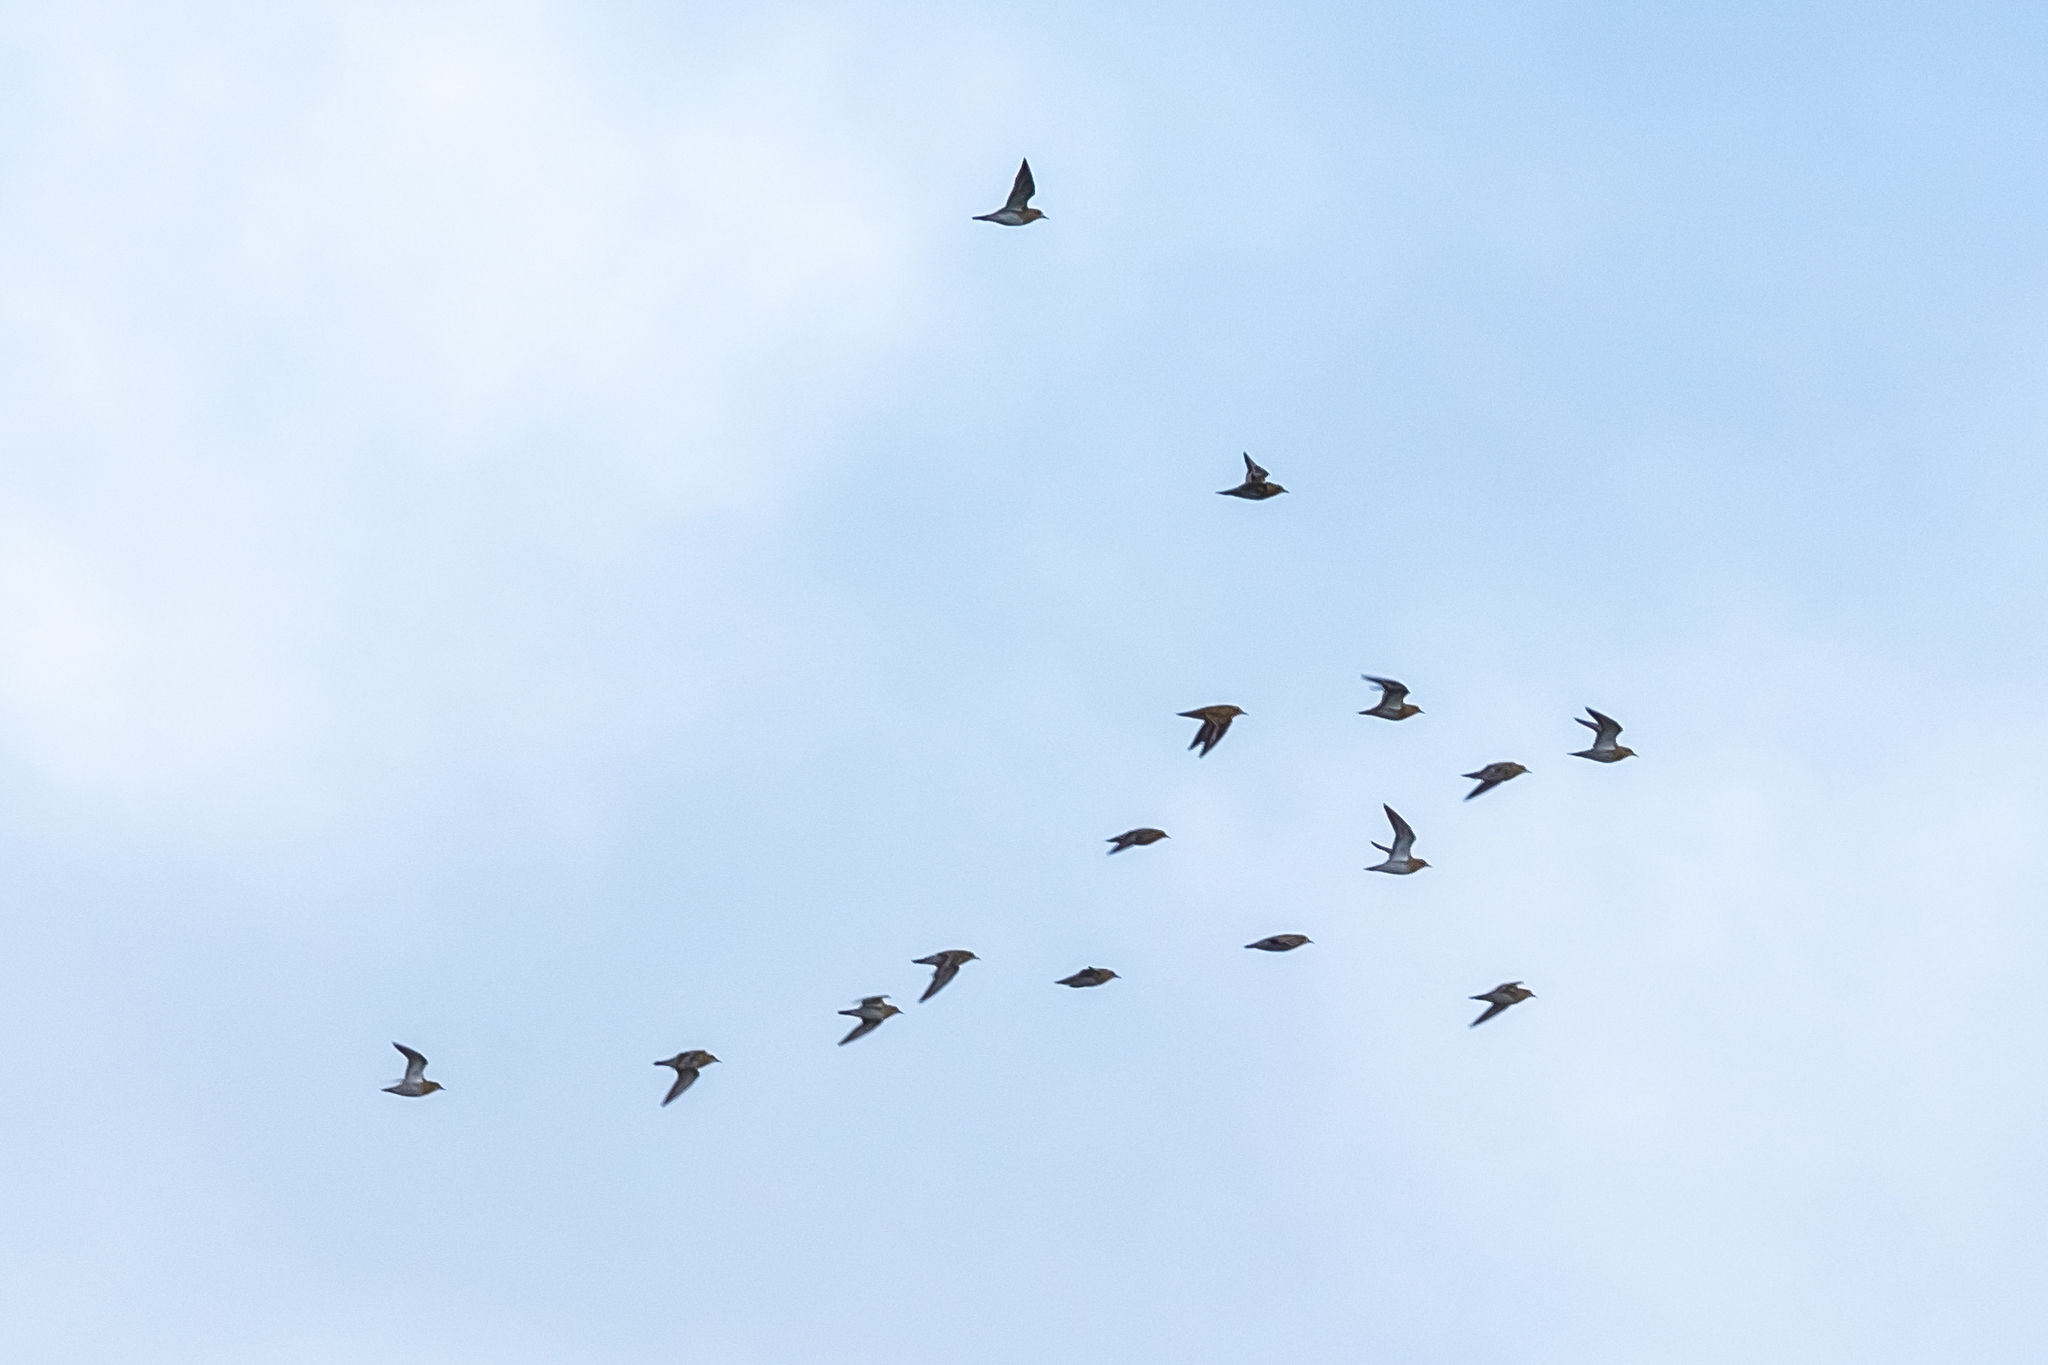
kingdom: Animalia
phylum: Chordata
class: Aves
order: Charadriiformes
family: Charadriidae
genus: Pluvialis
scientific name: Pluvialis apricaria
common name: European golden plover
